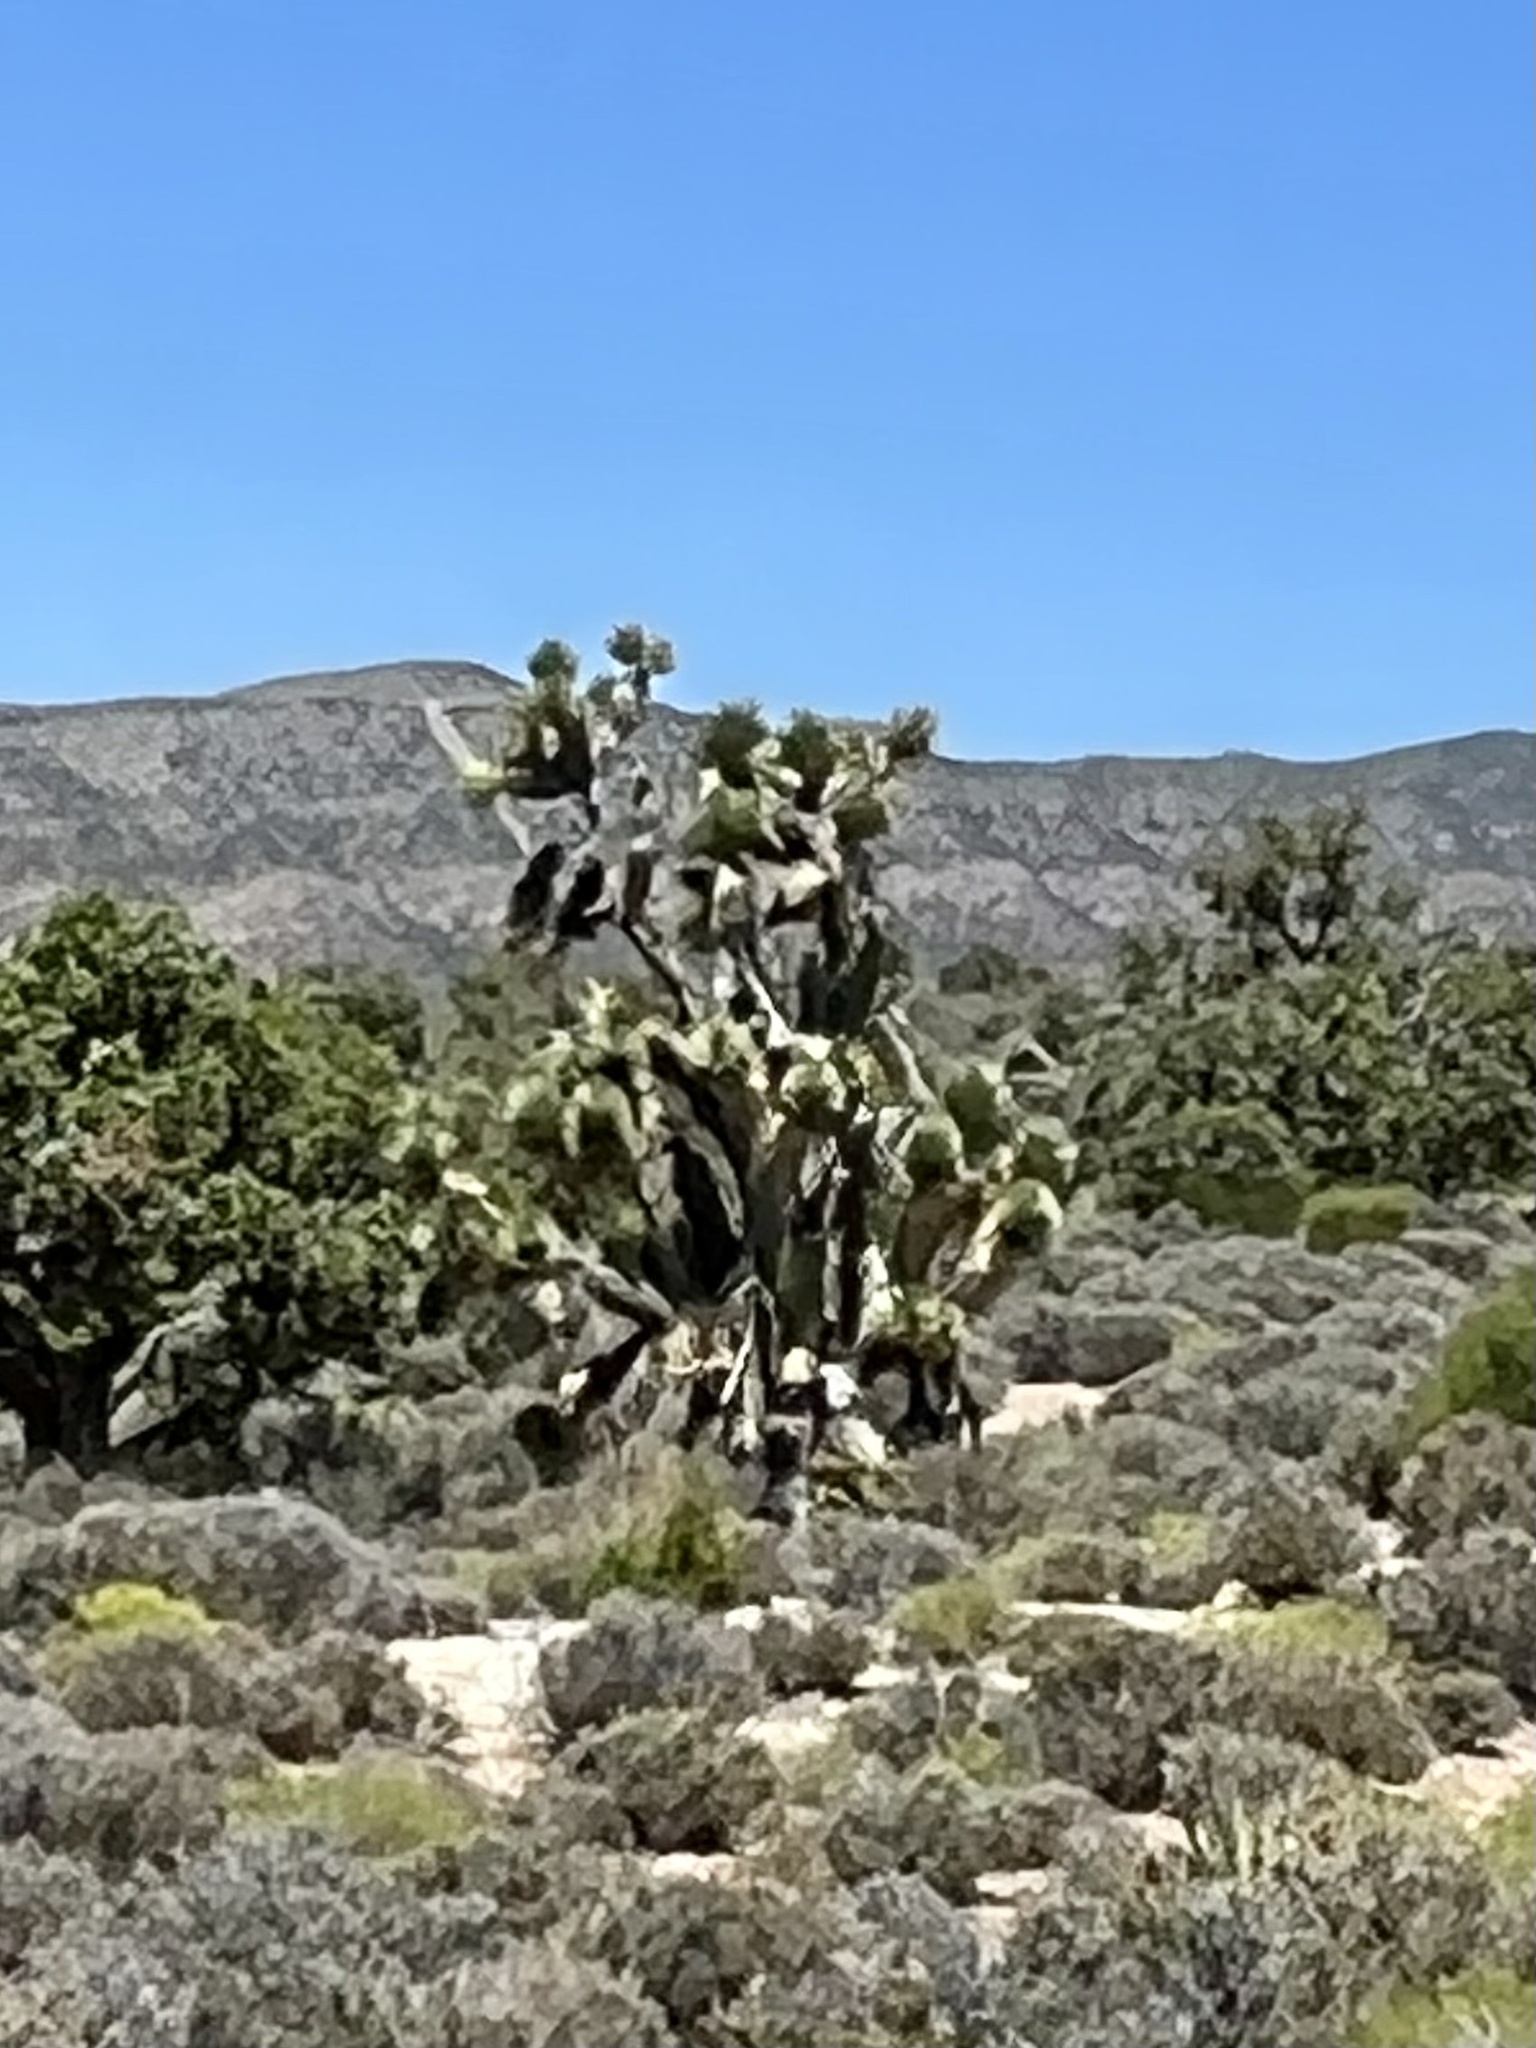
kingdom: Plantae
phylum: Tracheophyta
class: Liliopsida
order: Asparagales
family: Asparagaceae
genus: Yucca
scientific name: Yucca brevifolia
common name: Joshua tree
